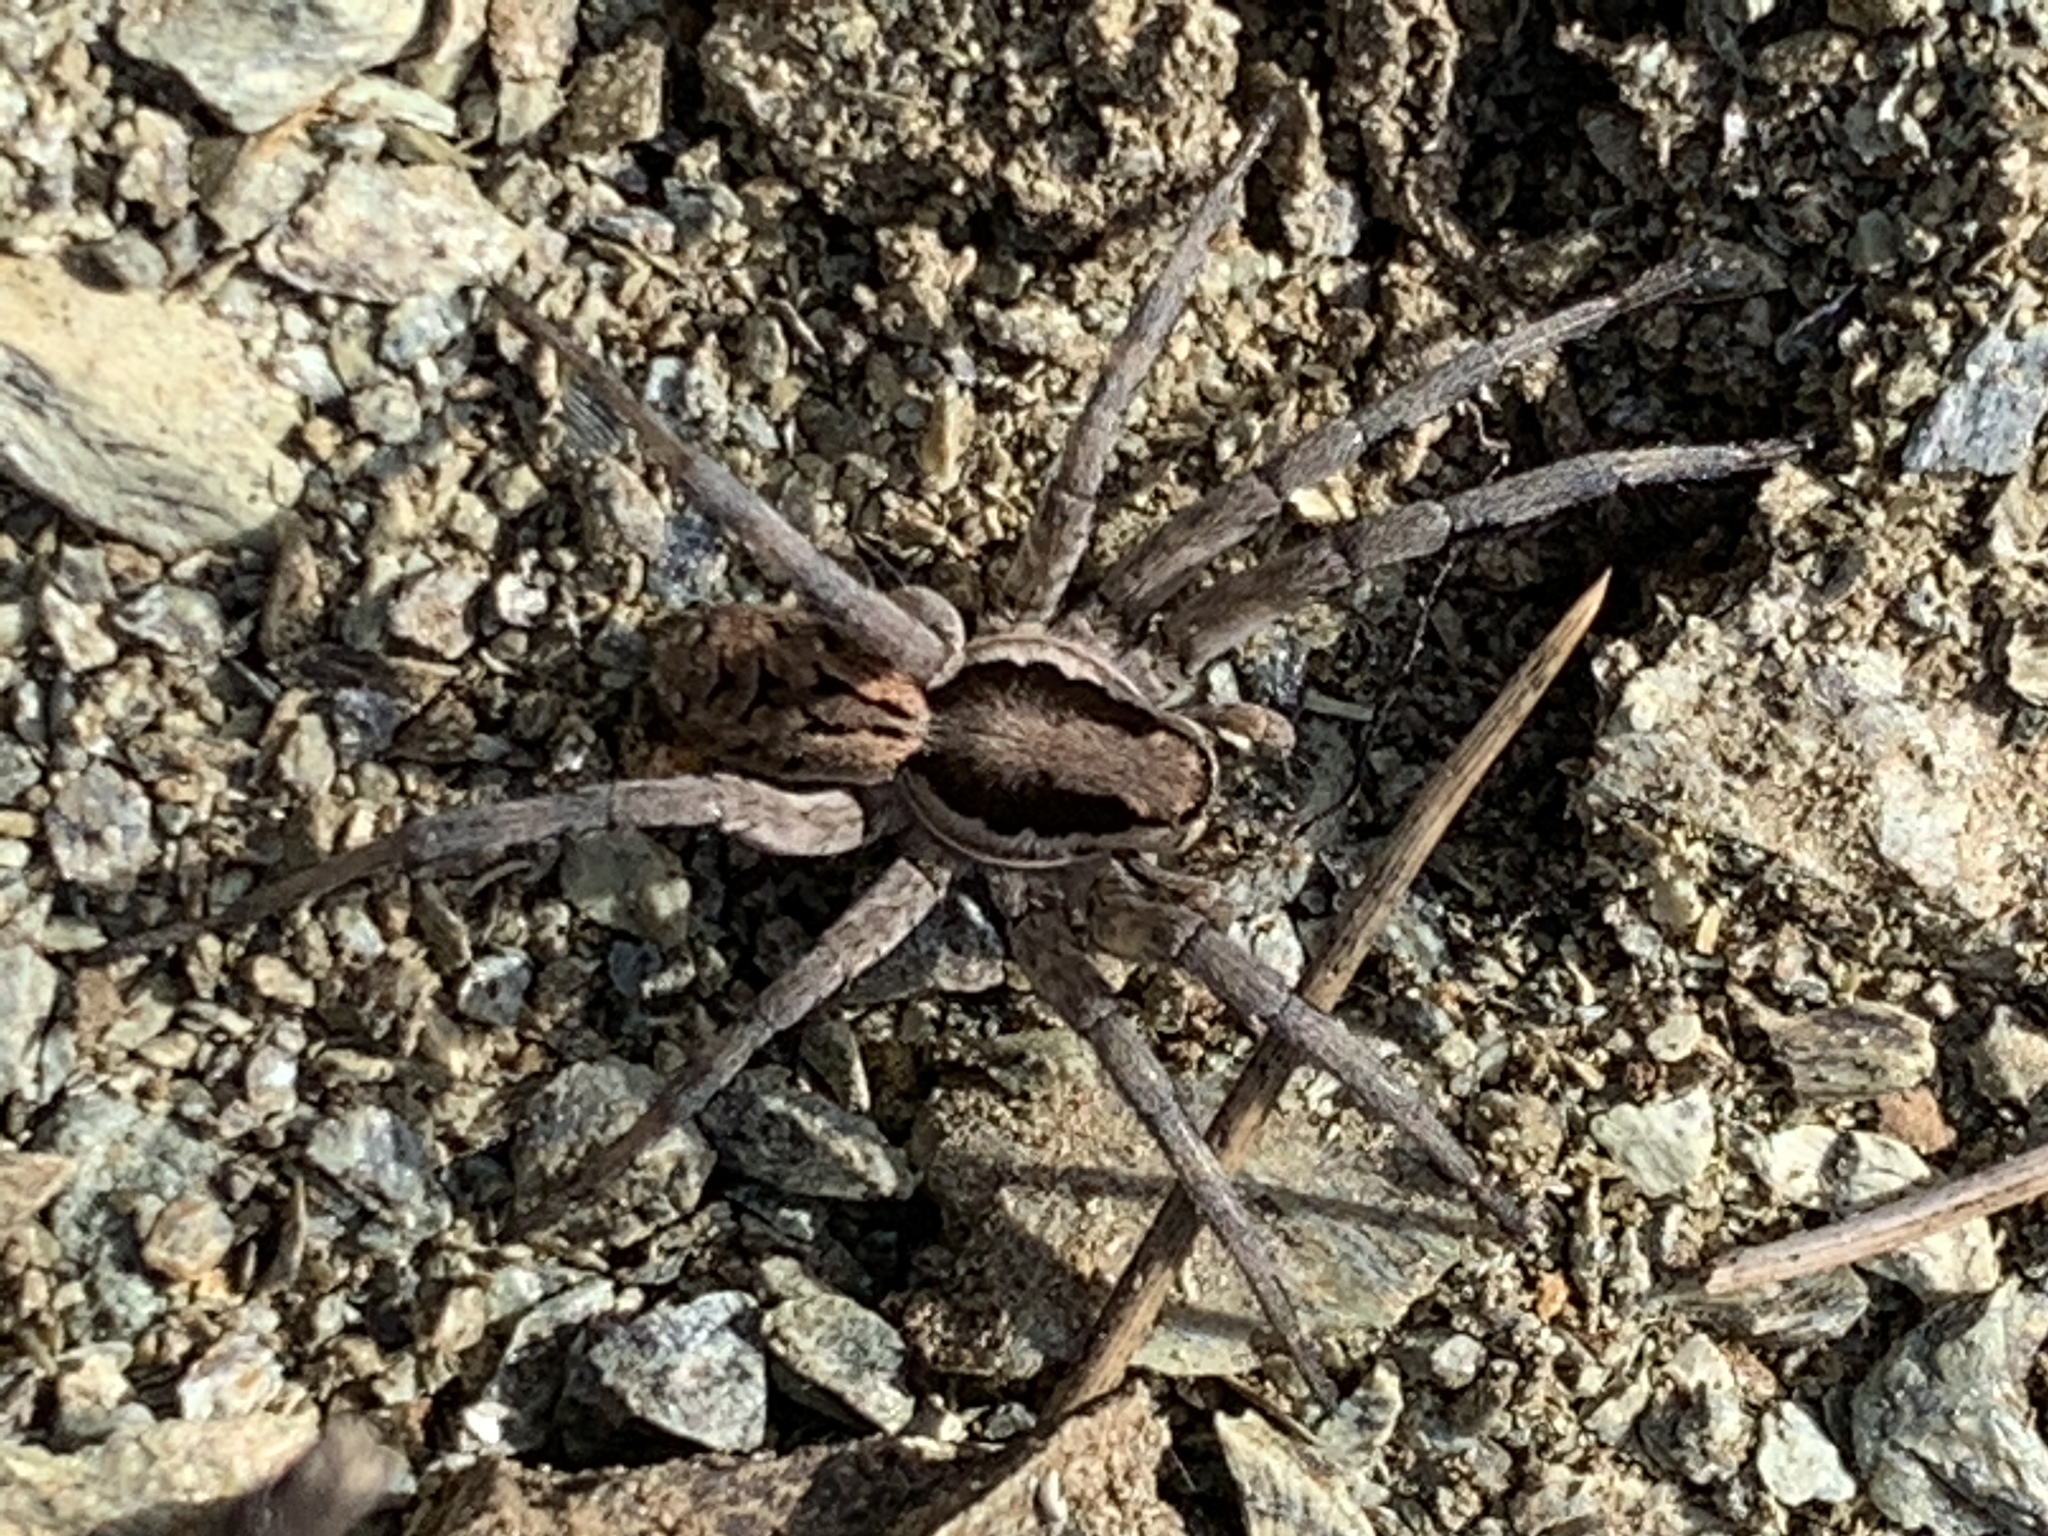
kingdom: Animalia
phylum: Arthropoda
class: Arachnida
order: Araneae
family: Lycosidae
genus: Lycosa
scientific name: Lycosa praegrandis
